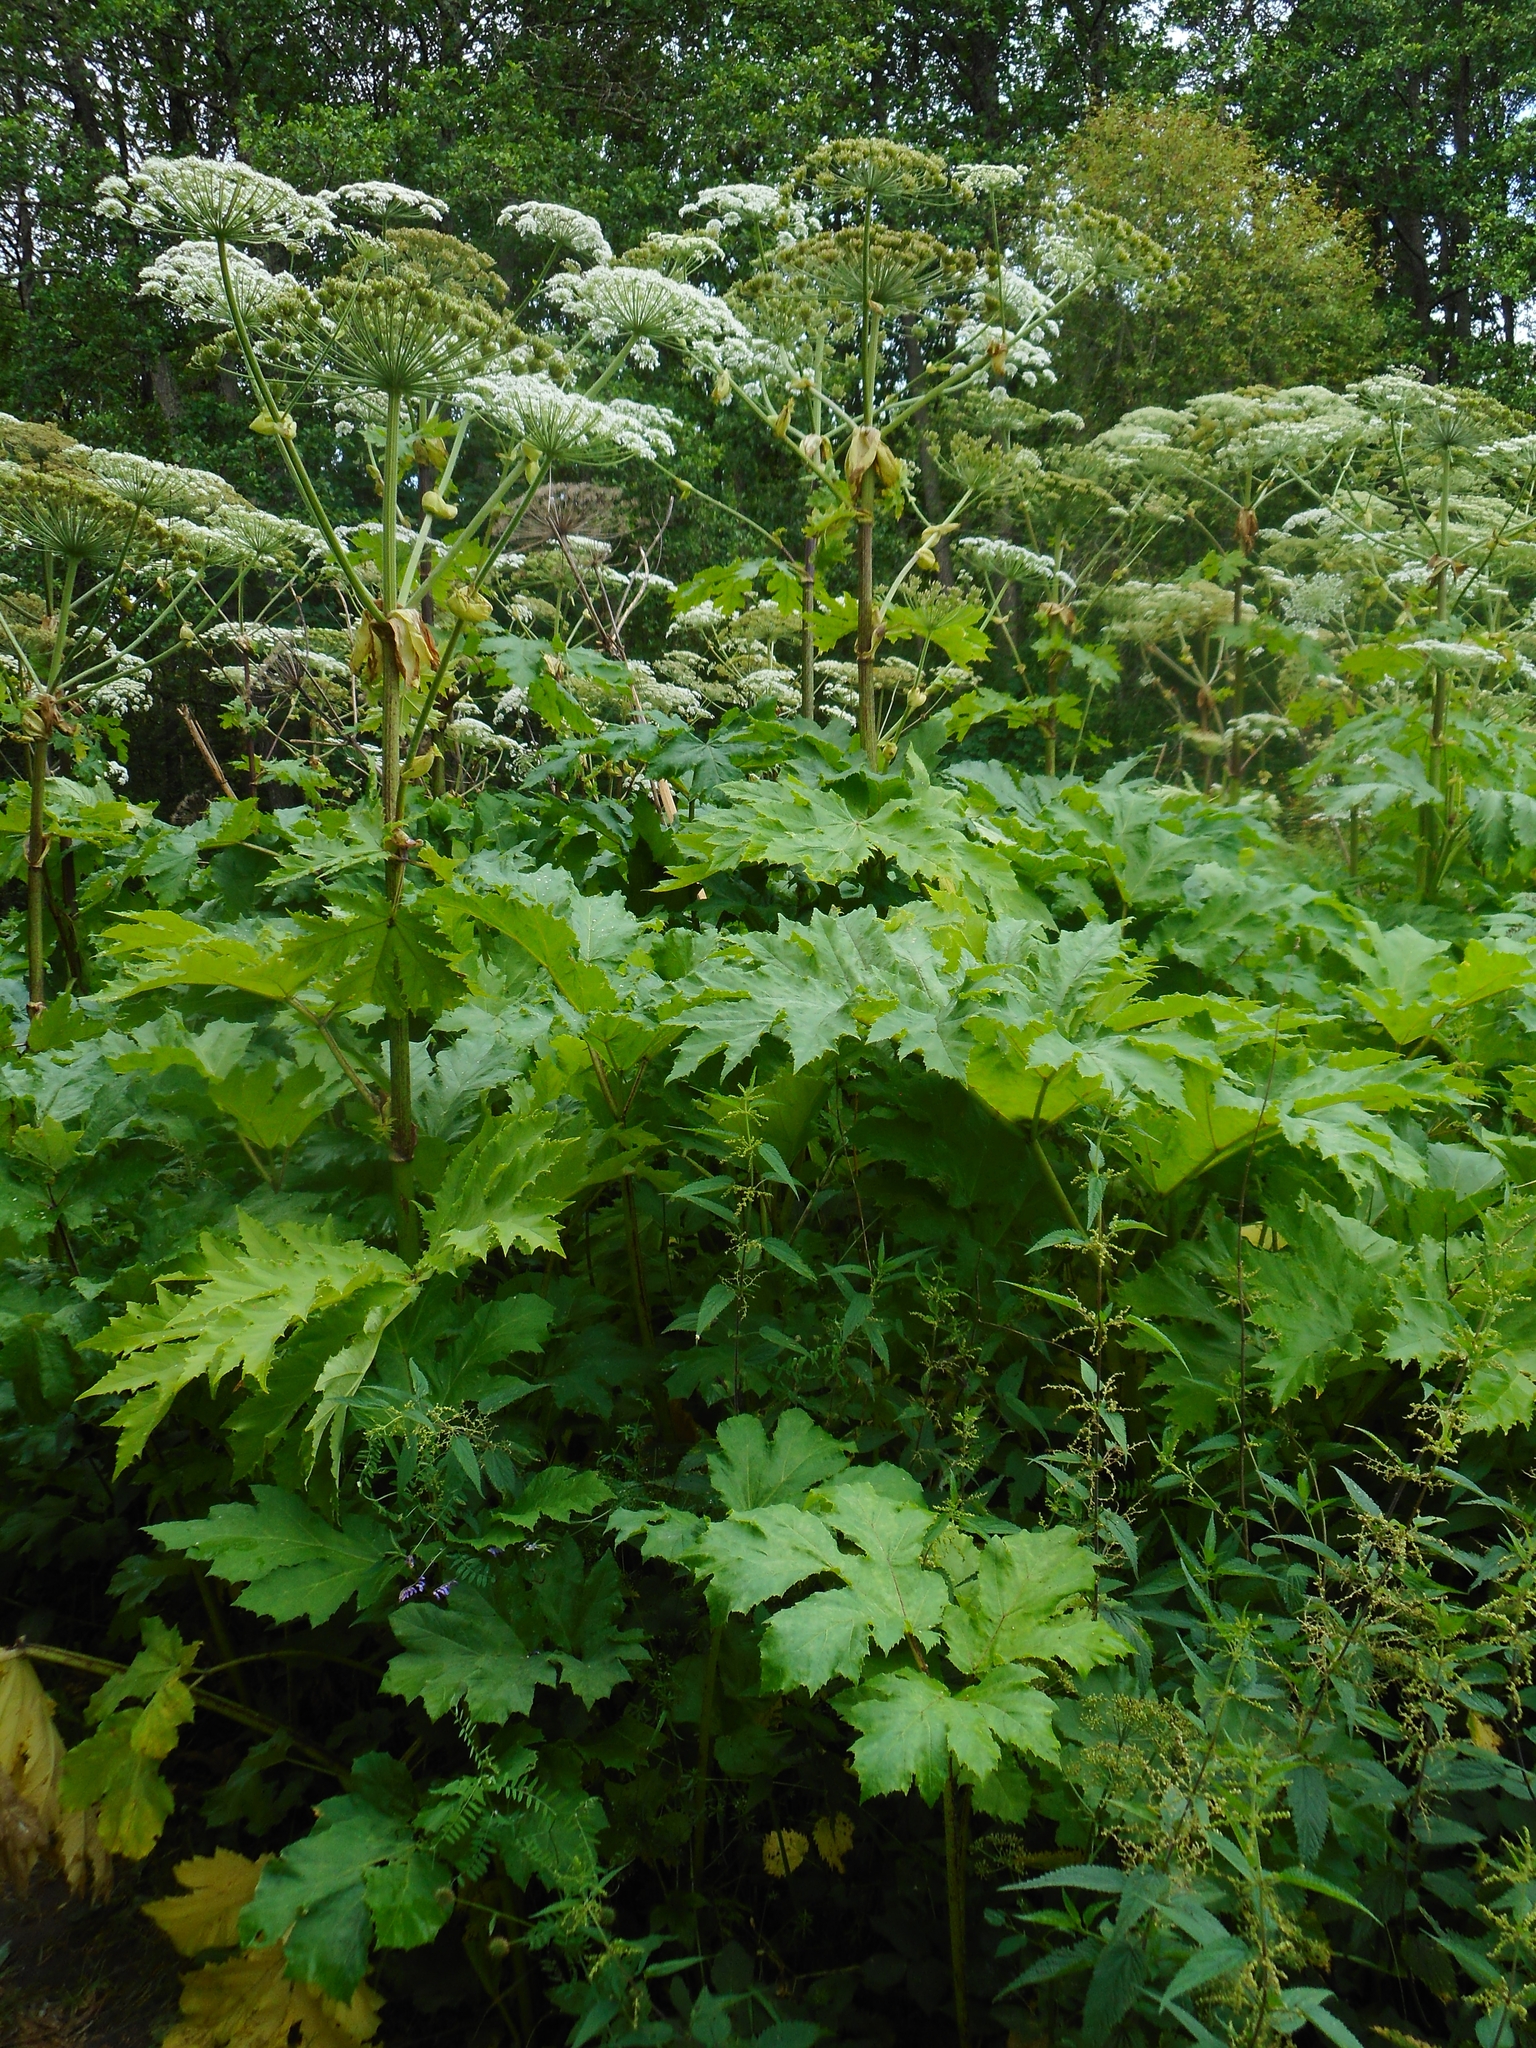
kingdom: Plantae
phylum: Tracheophyta
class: Magnoliopsida
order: Apiales
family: Apiaceae
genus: Heracleum
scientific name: Heracleum sosnowskyi
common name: Sosnowsky's hogweed
